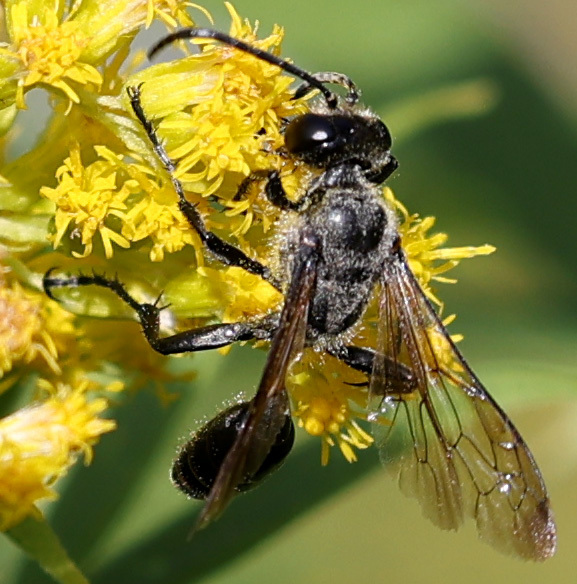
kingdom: Animalia
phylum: Arthropoda
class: Insecta
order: Hymenoptera
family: Sphecidae
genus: Isodontia
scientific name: Isodontia mexicana
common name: Mud dauber
